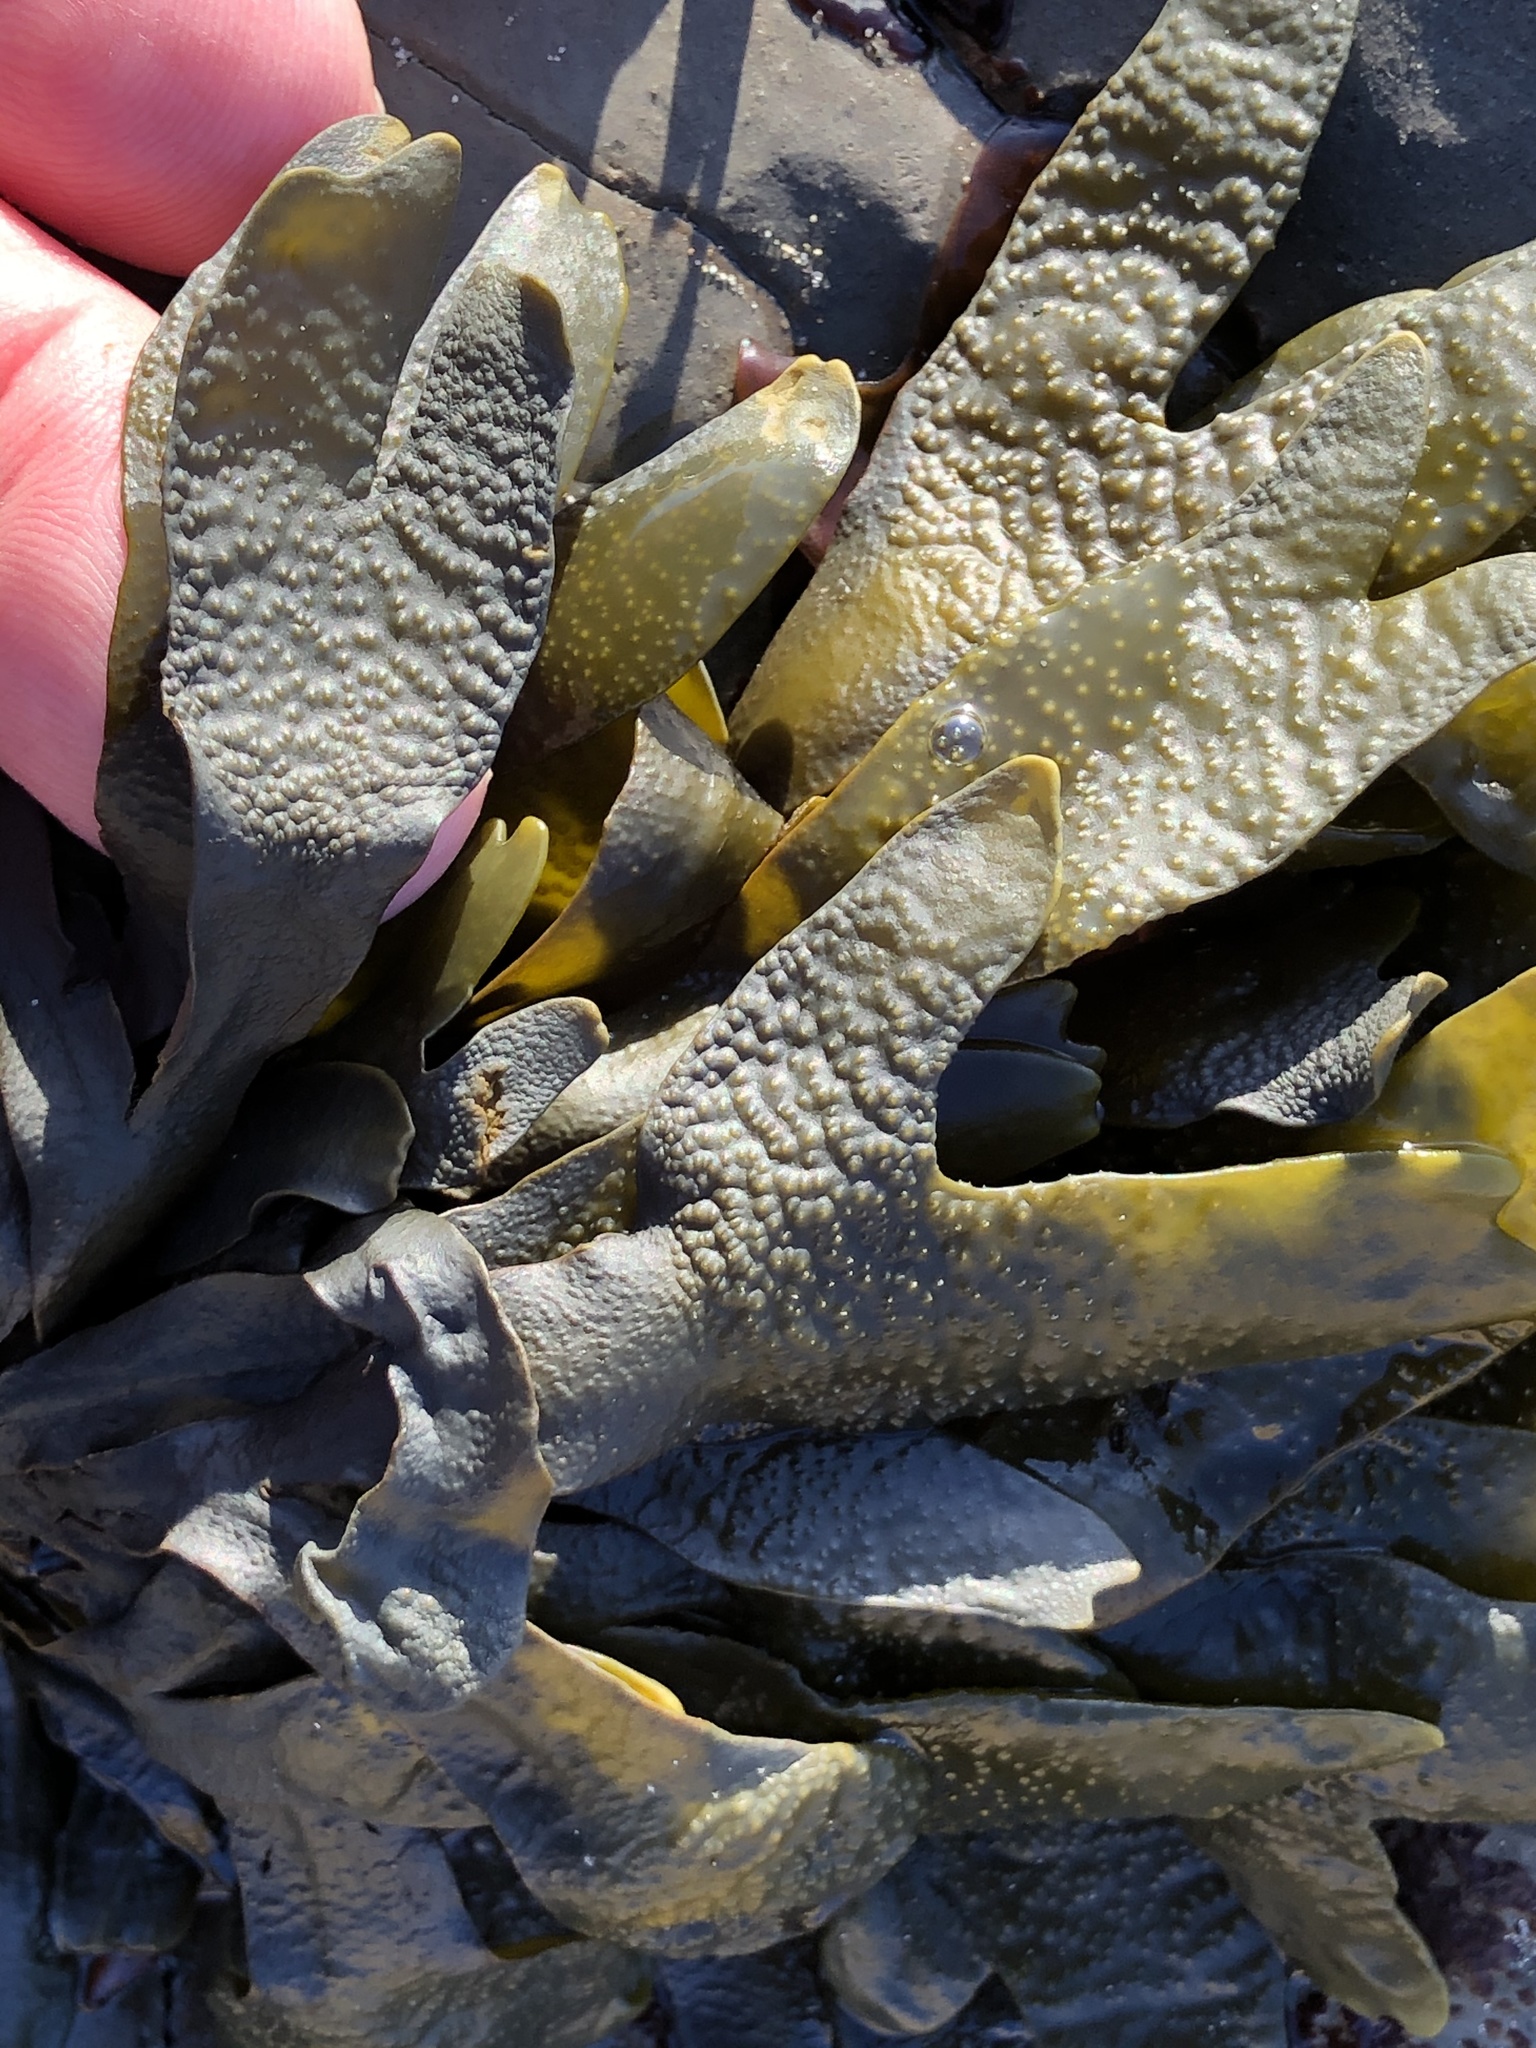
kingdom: Chromista
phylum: Ochrophyta
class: Phaeophyceae
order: Fucales
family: Fucaceae
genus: Fucus
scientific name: Fucus distichus
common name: Rockweed
